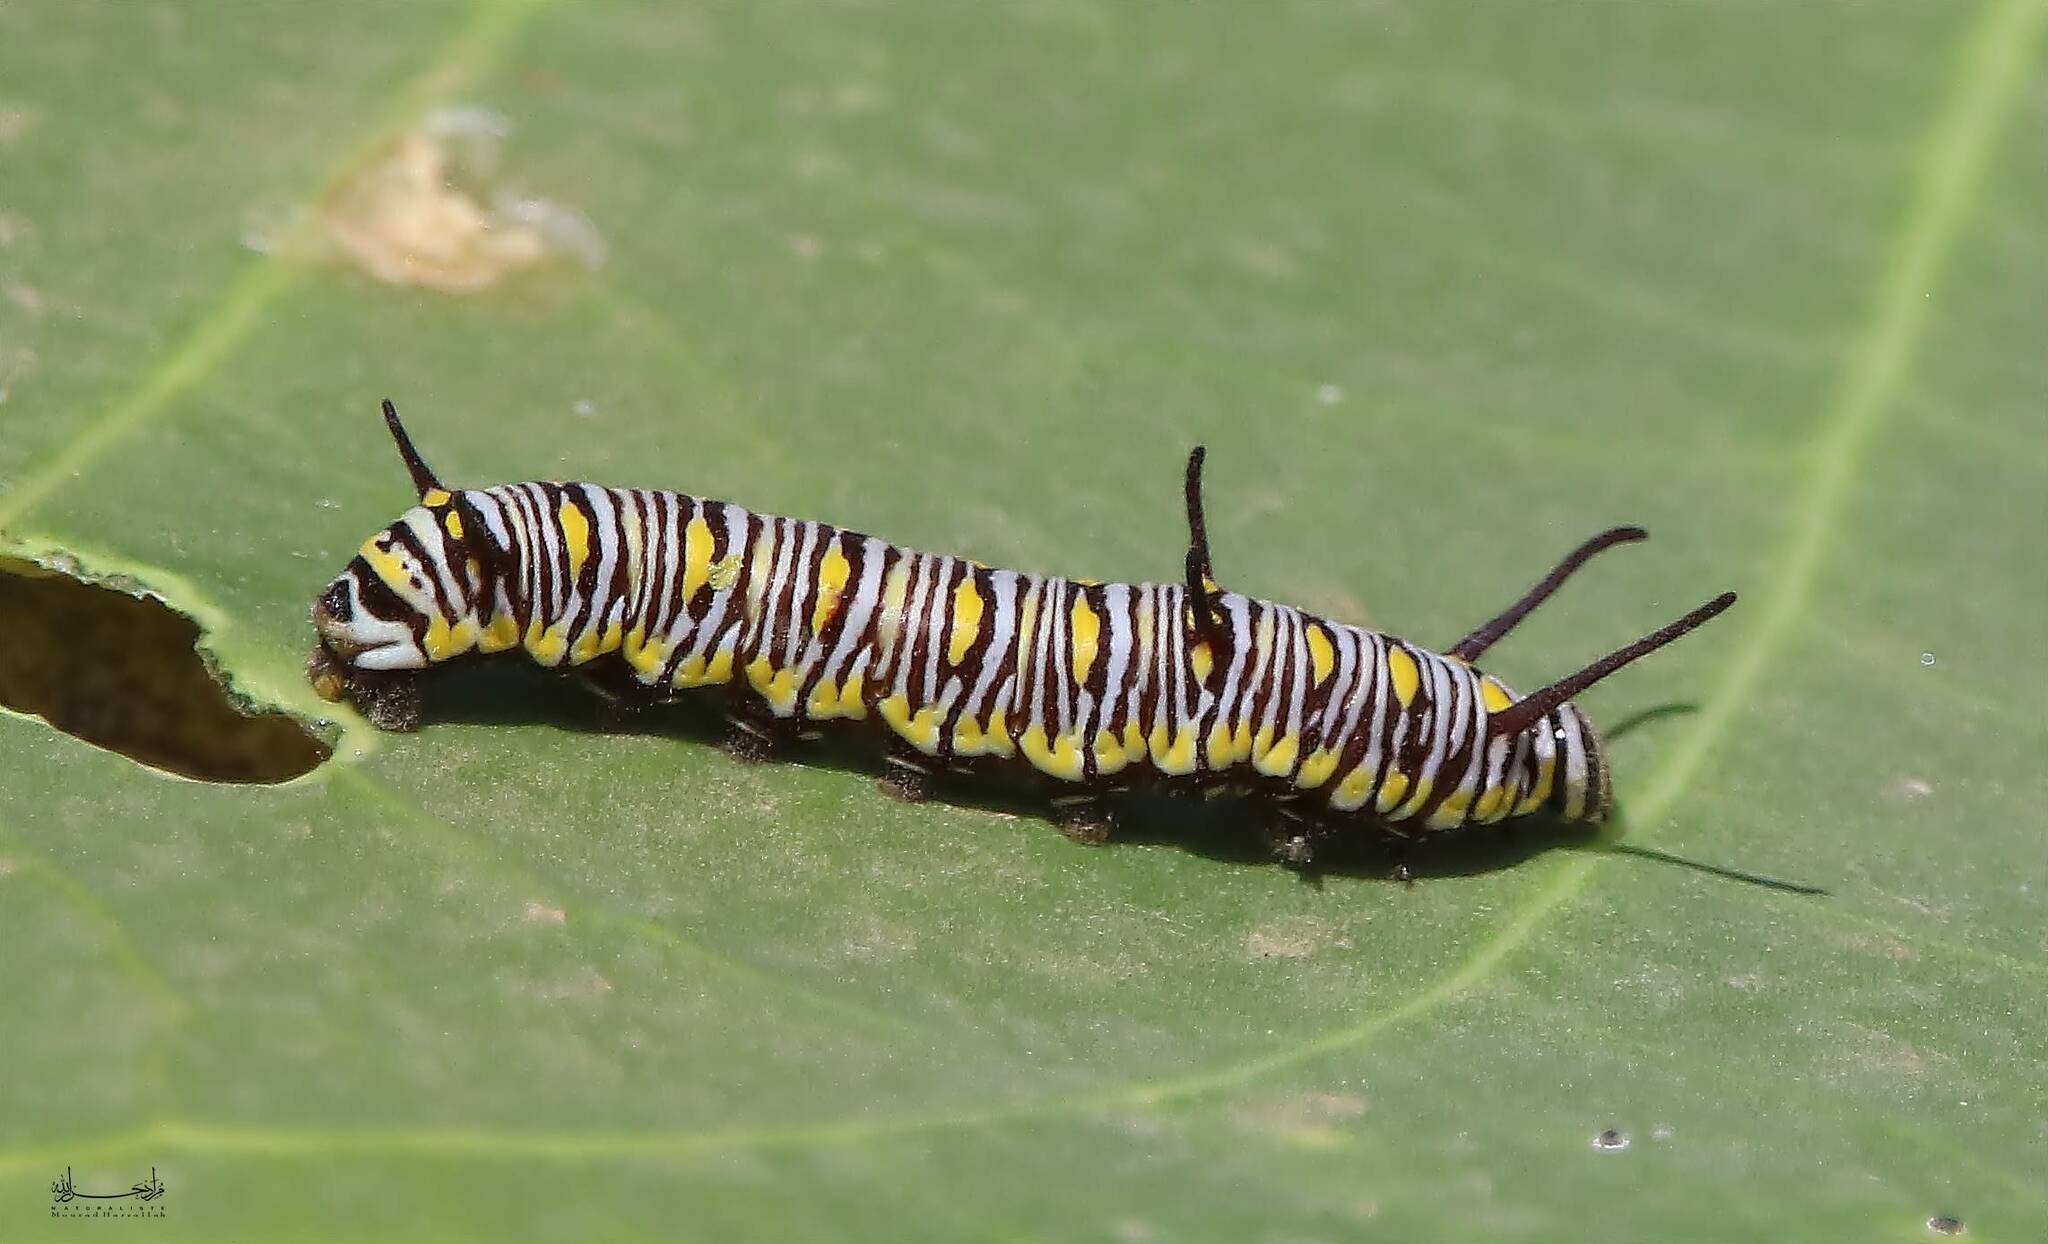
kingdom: Animalia
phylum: Arthropoda
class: Insecta
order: Lepidoptera
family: Nymphalidae
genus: Danaus
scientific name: Danaus chrysippus
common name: Plain tiger
